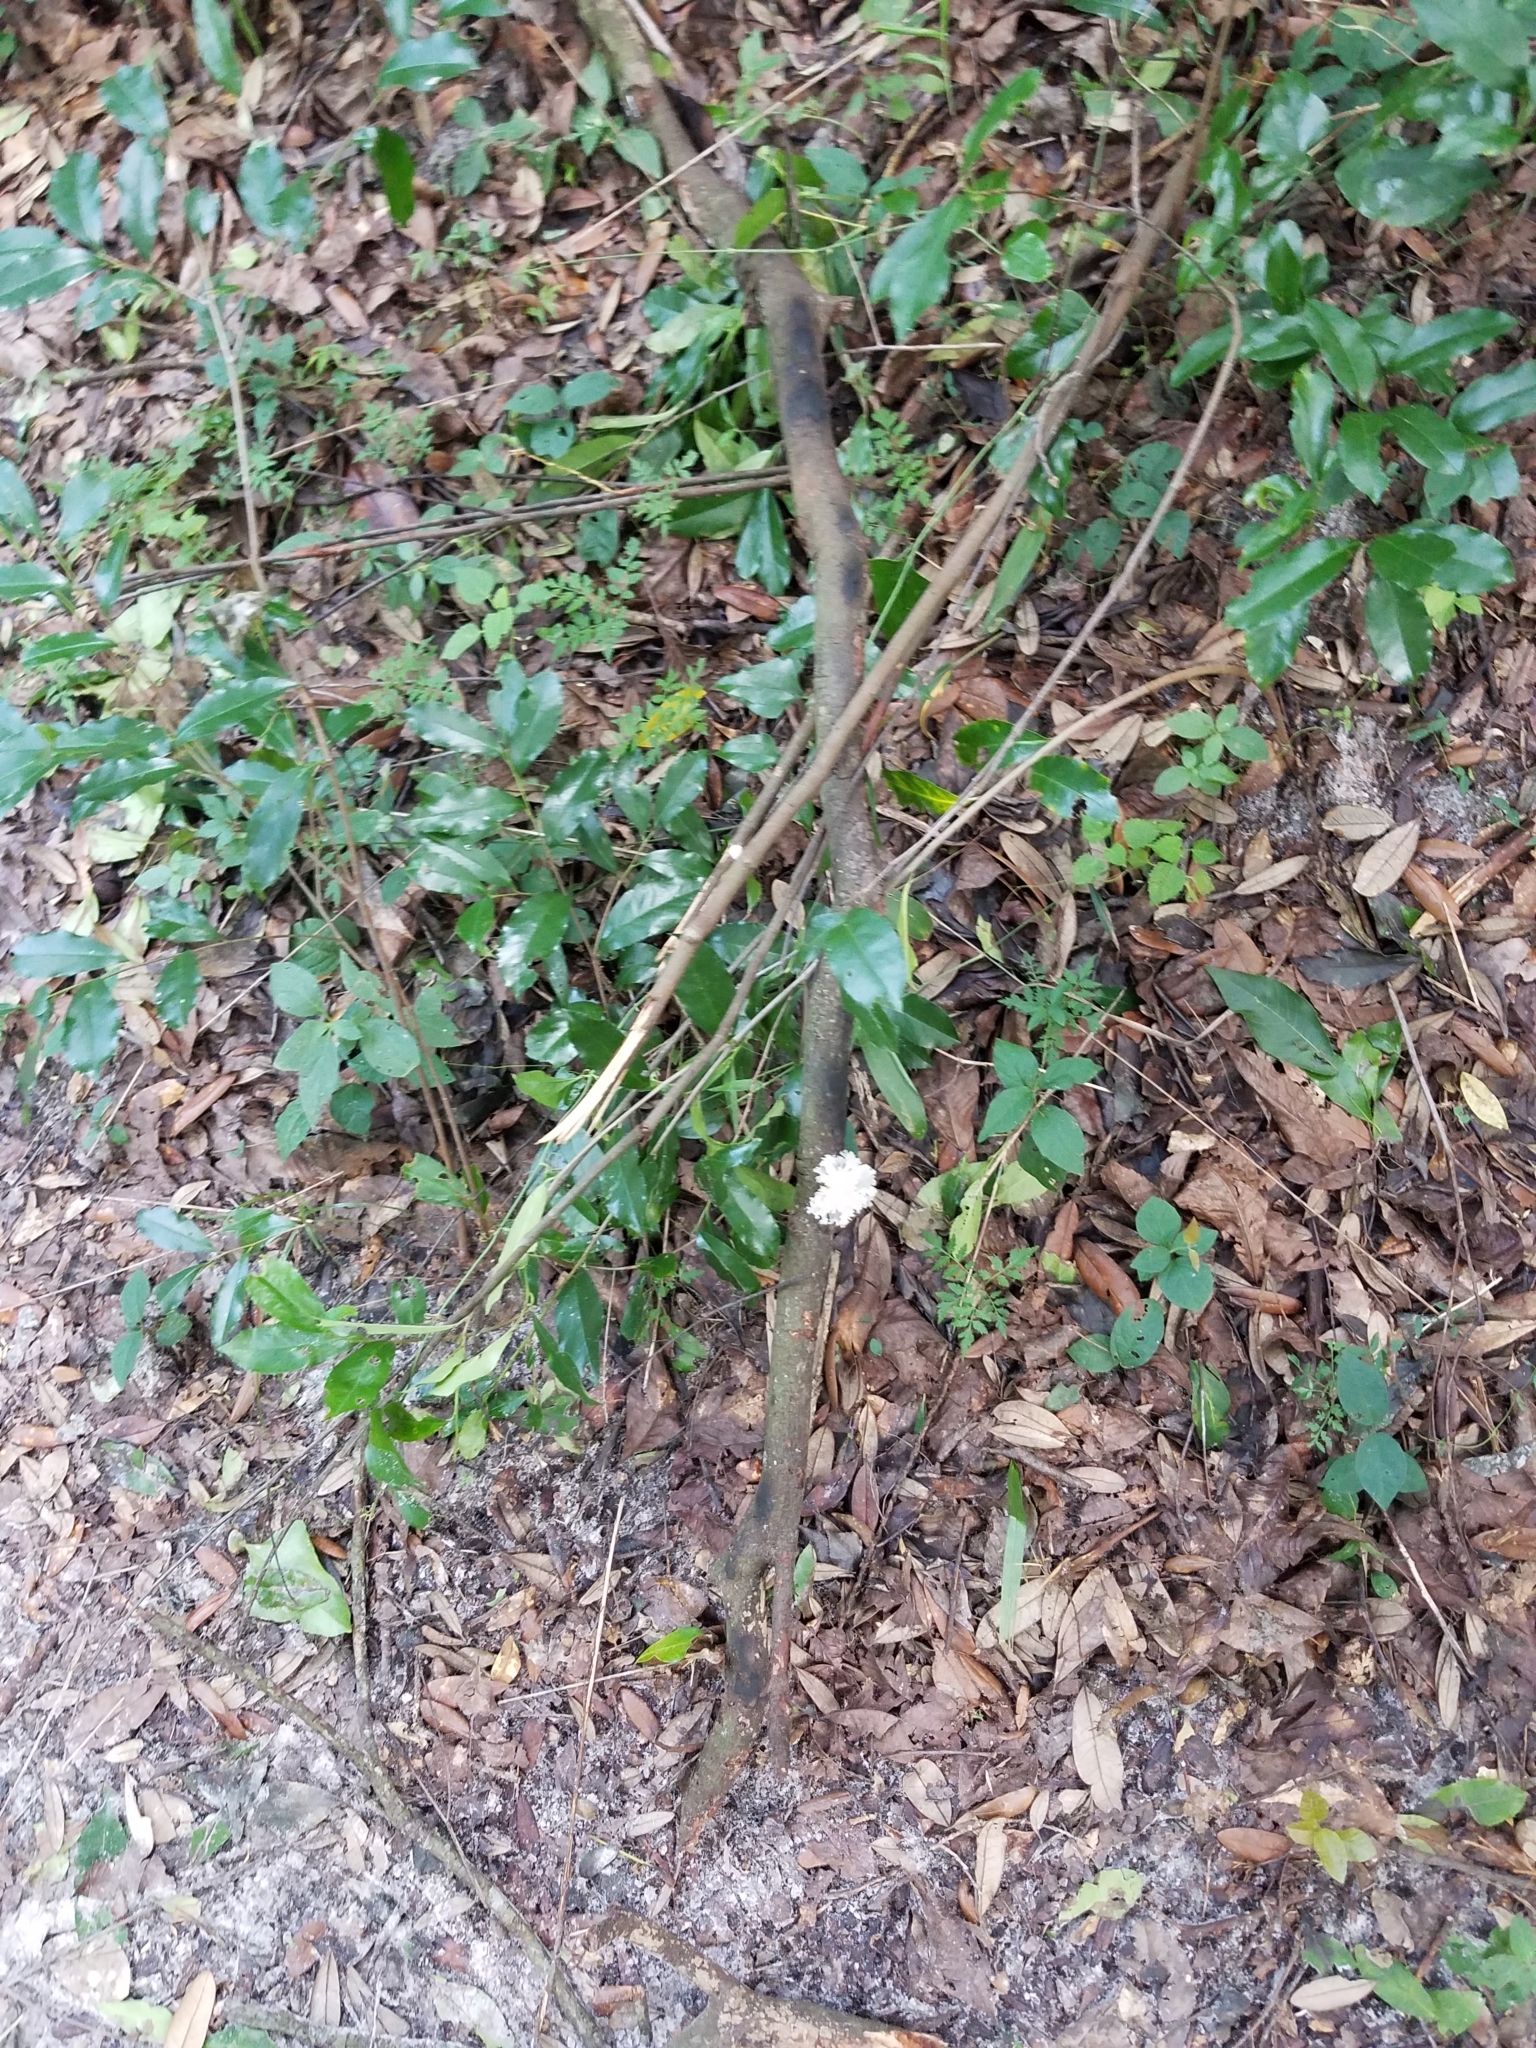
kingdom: Fungi
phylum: Basidiomycota
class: Tremellomycetes
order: Tremellales
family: Tremellaceae
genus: Tremella
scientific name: Tremella fuciformis
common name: Snow fungus
